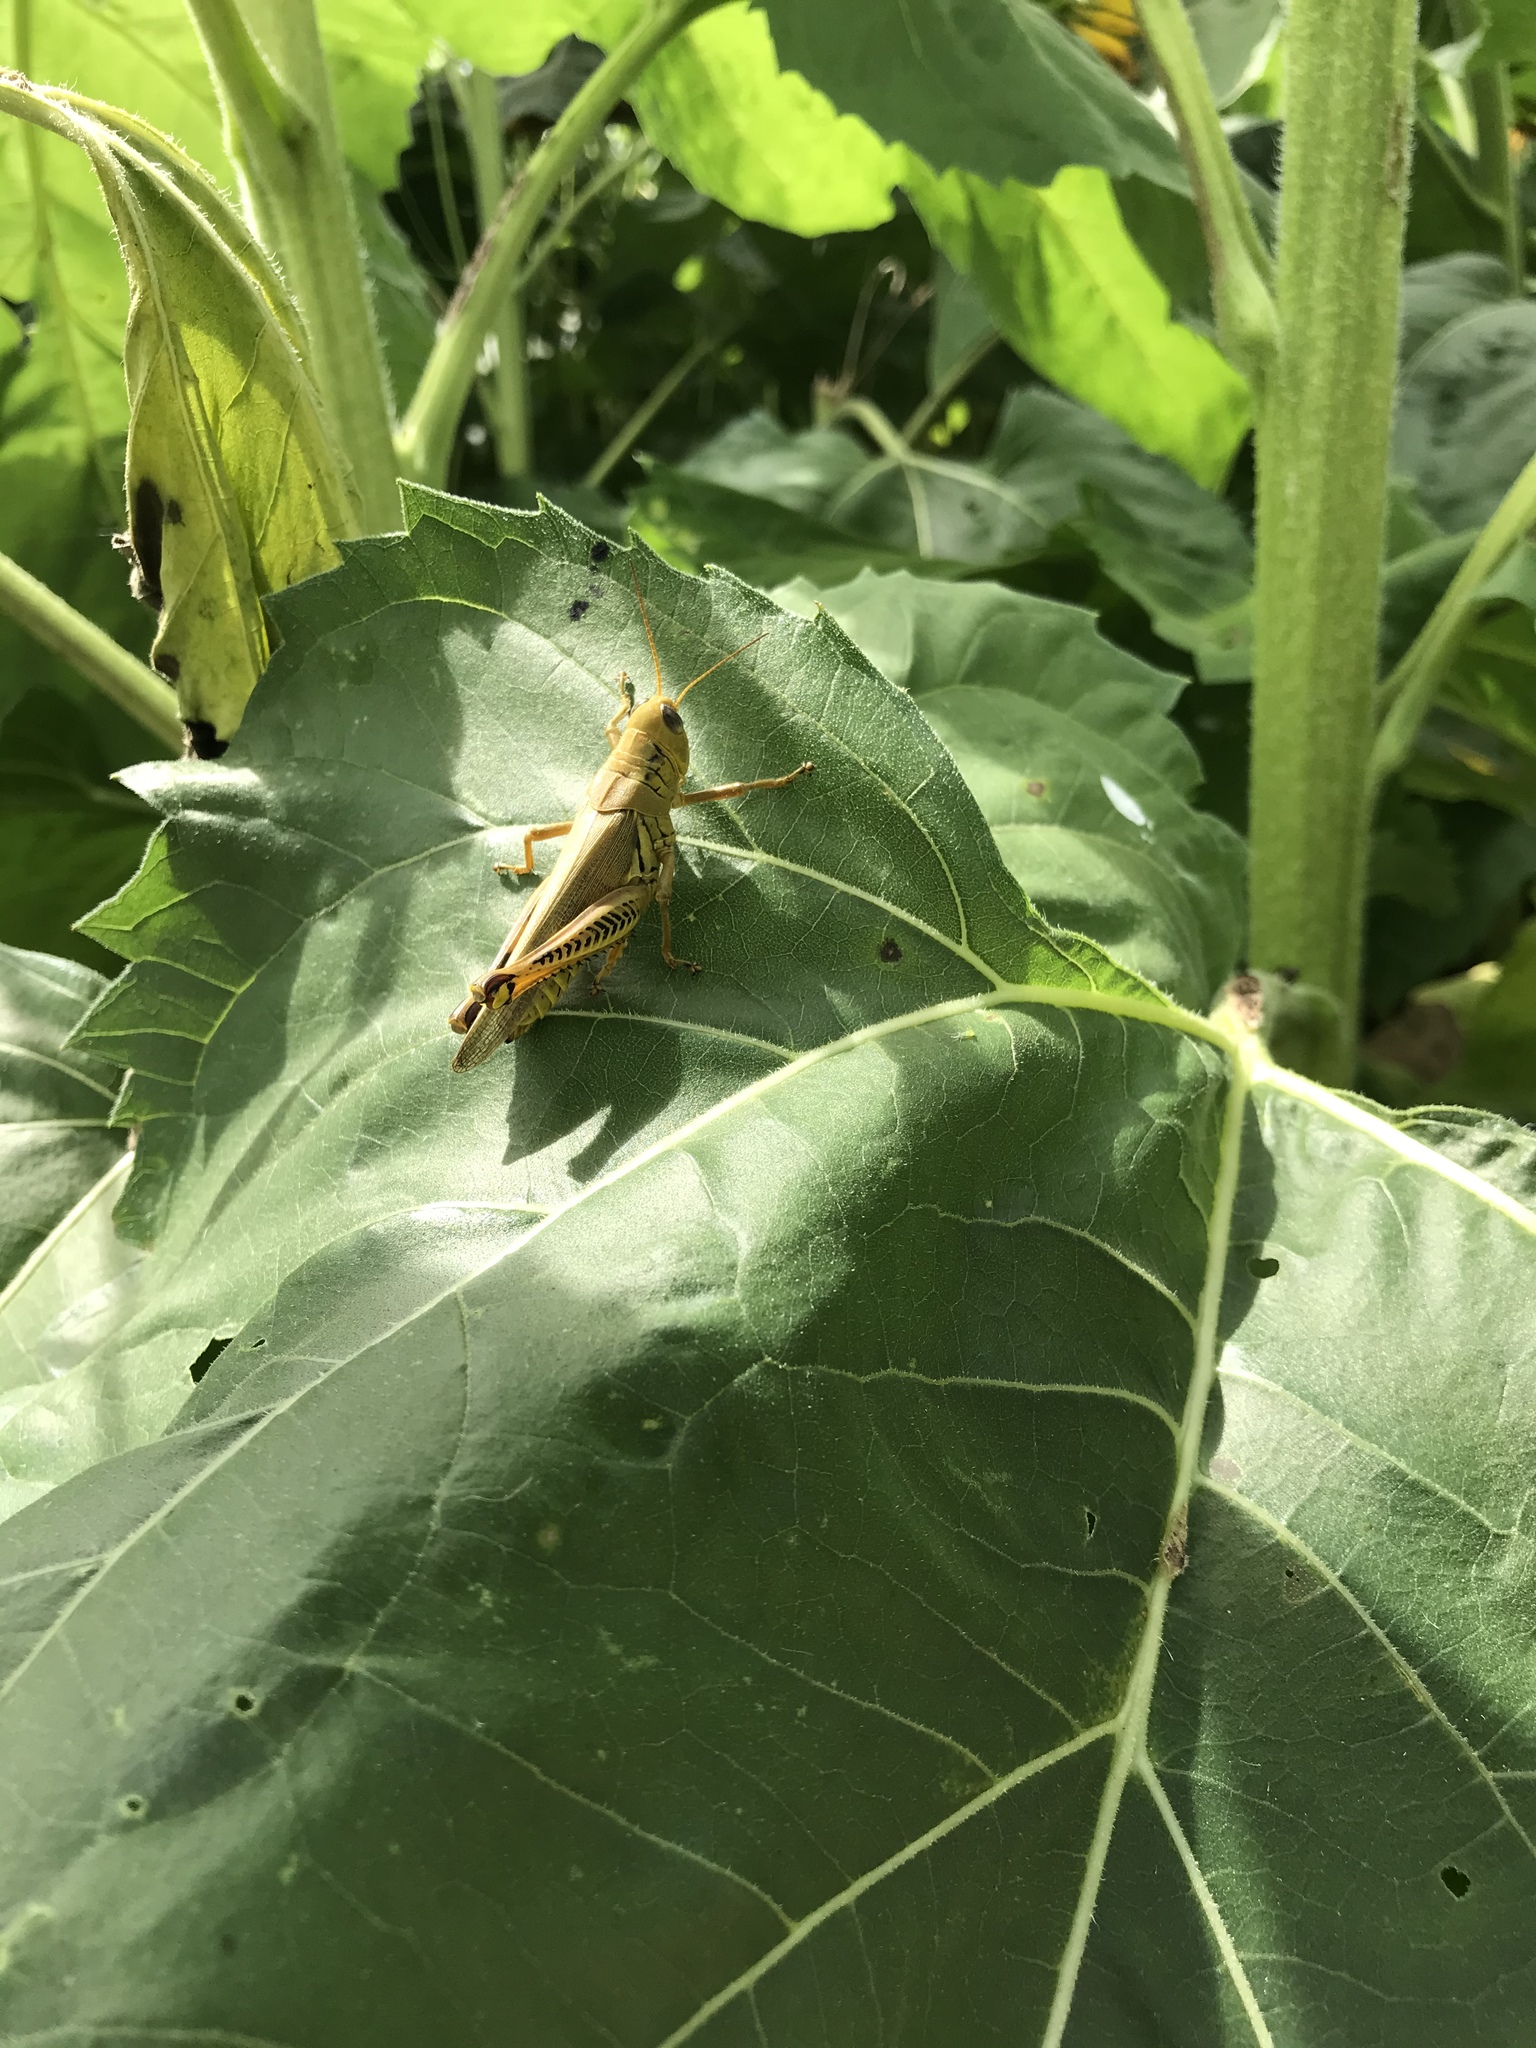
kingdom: Animalia
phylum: Arthropoda
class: Insecta
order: Orthoptera
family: Acrididae
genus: Melanoplus
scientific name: Melanoplus differentialis
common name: Differential grasshopper
